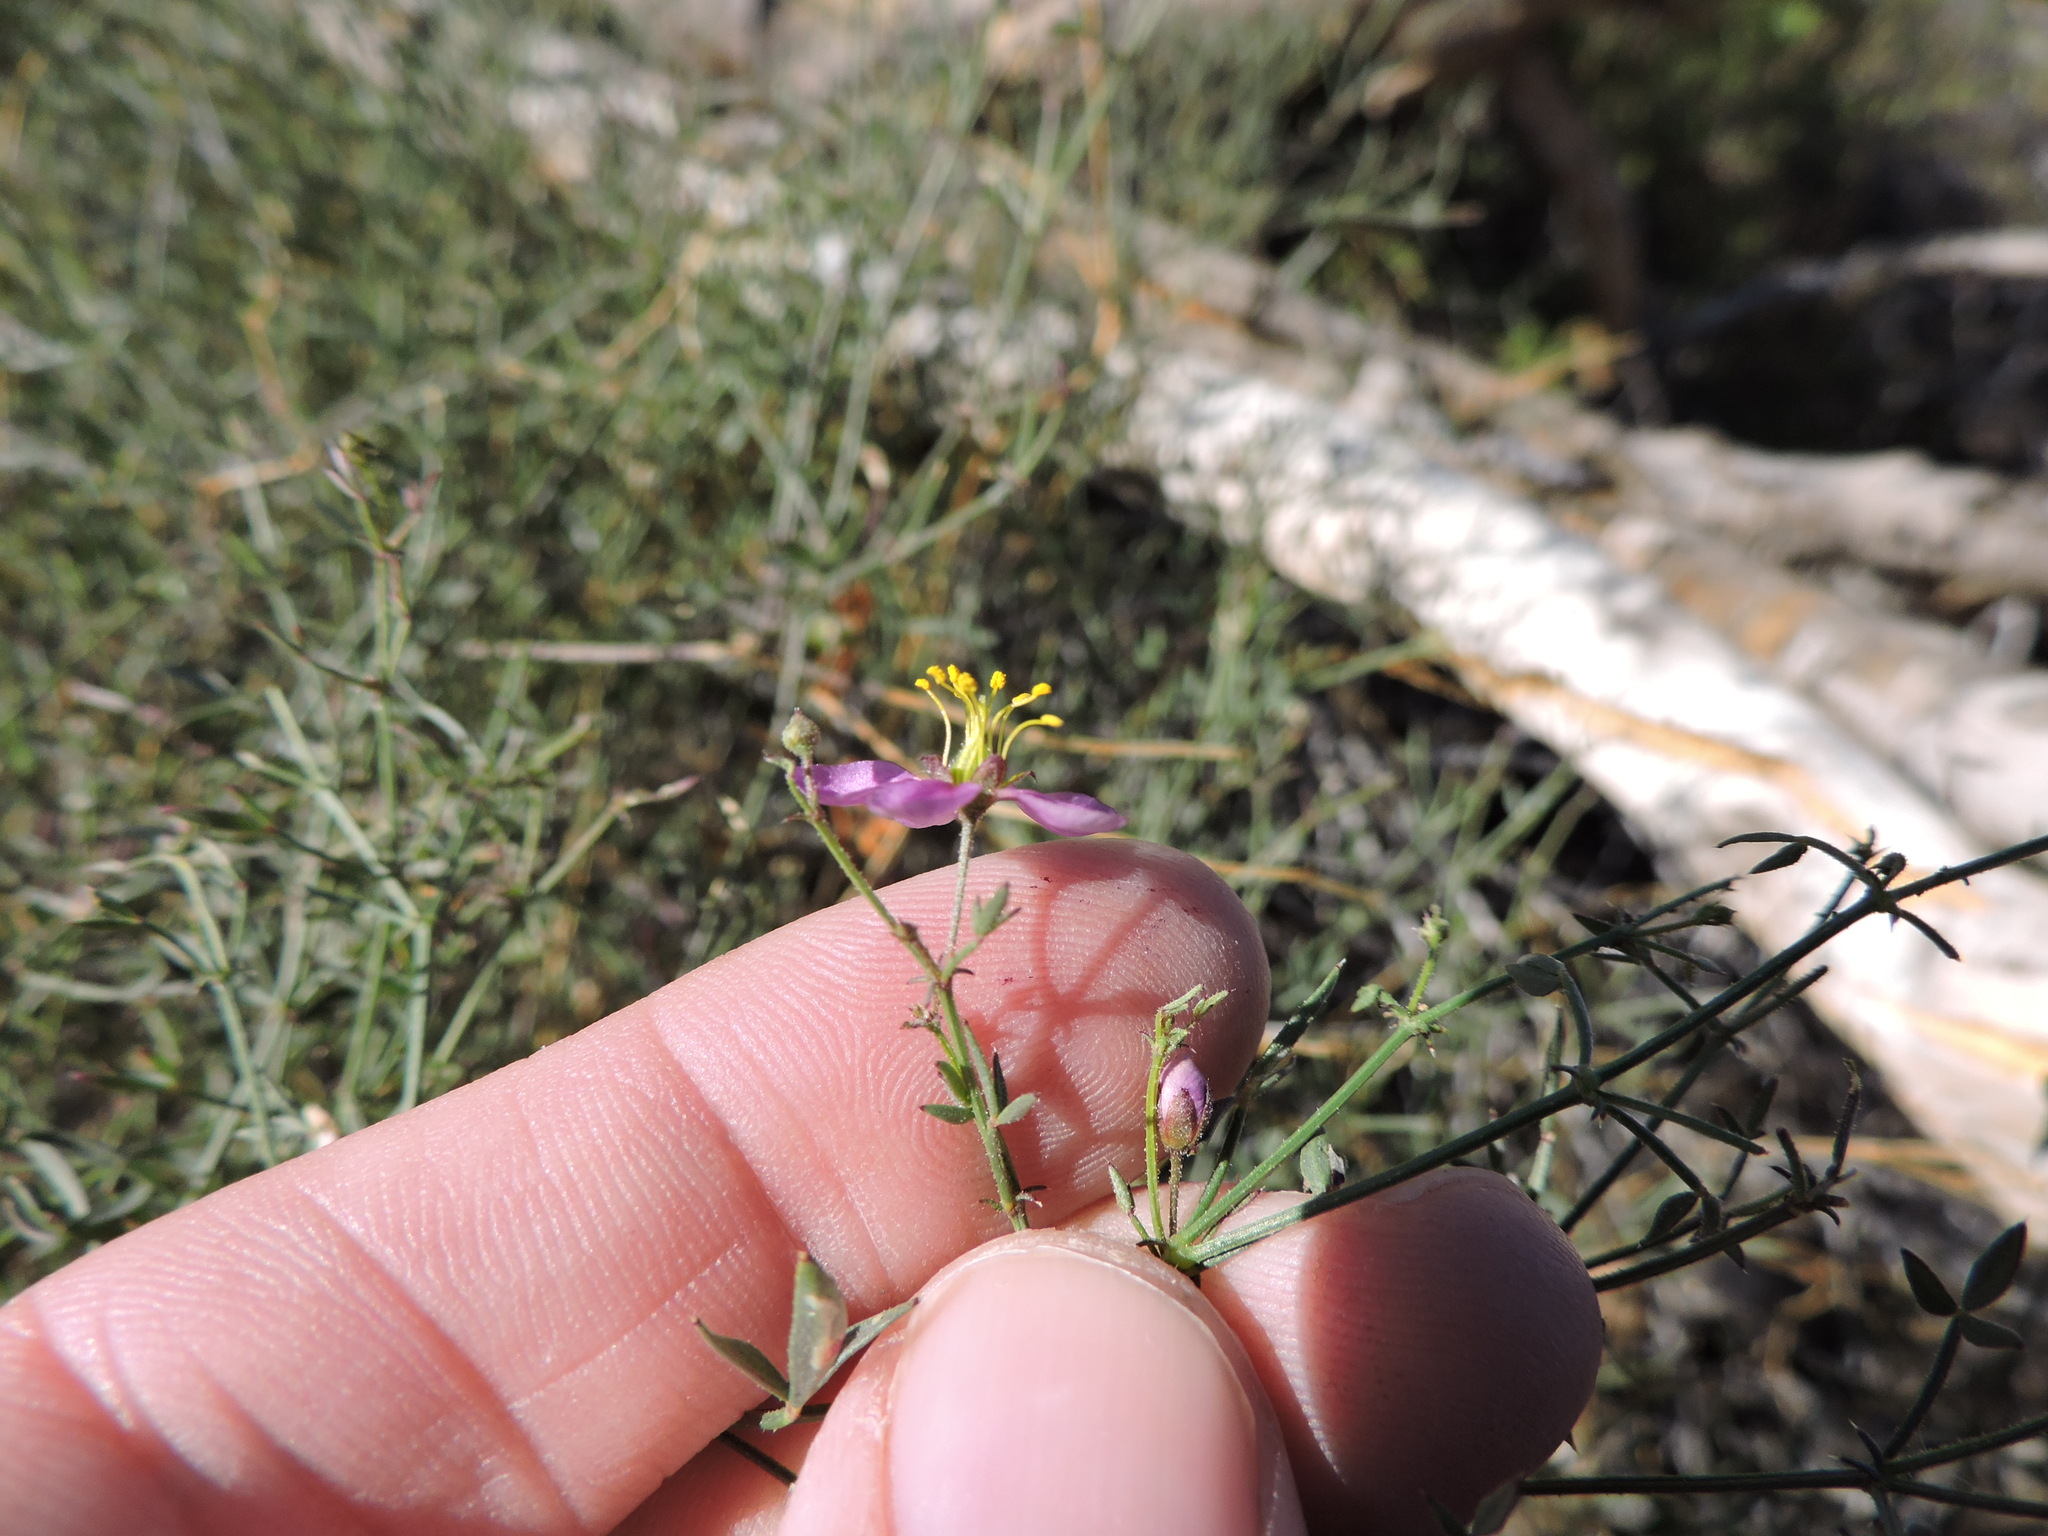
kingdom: Plantae
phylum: Tracheophyta
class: Magnoliopsida
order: Zygophyllales
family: Zygophyllaceae
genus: Fagonia
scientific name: Fagonia laevis
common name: California fagonbush
